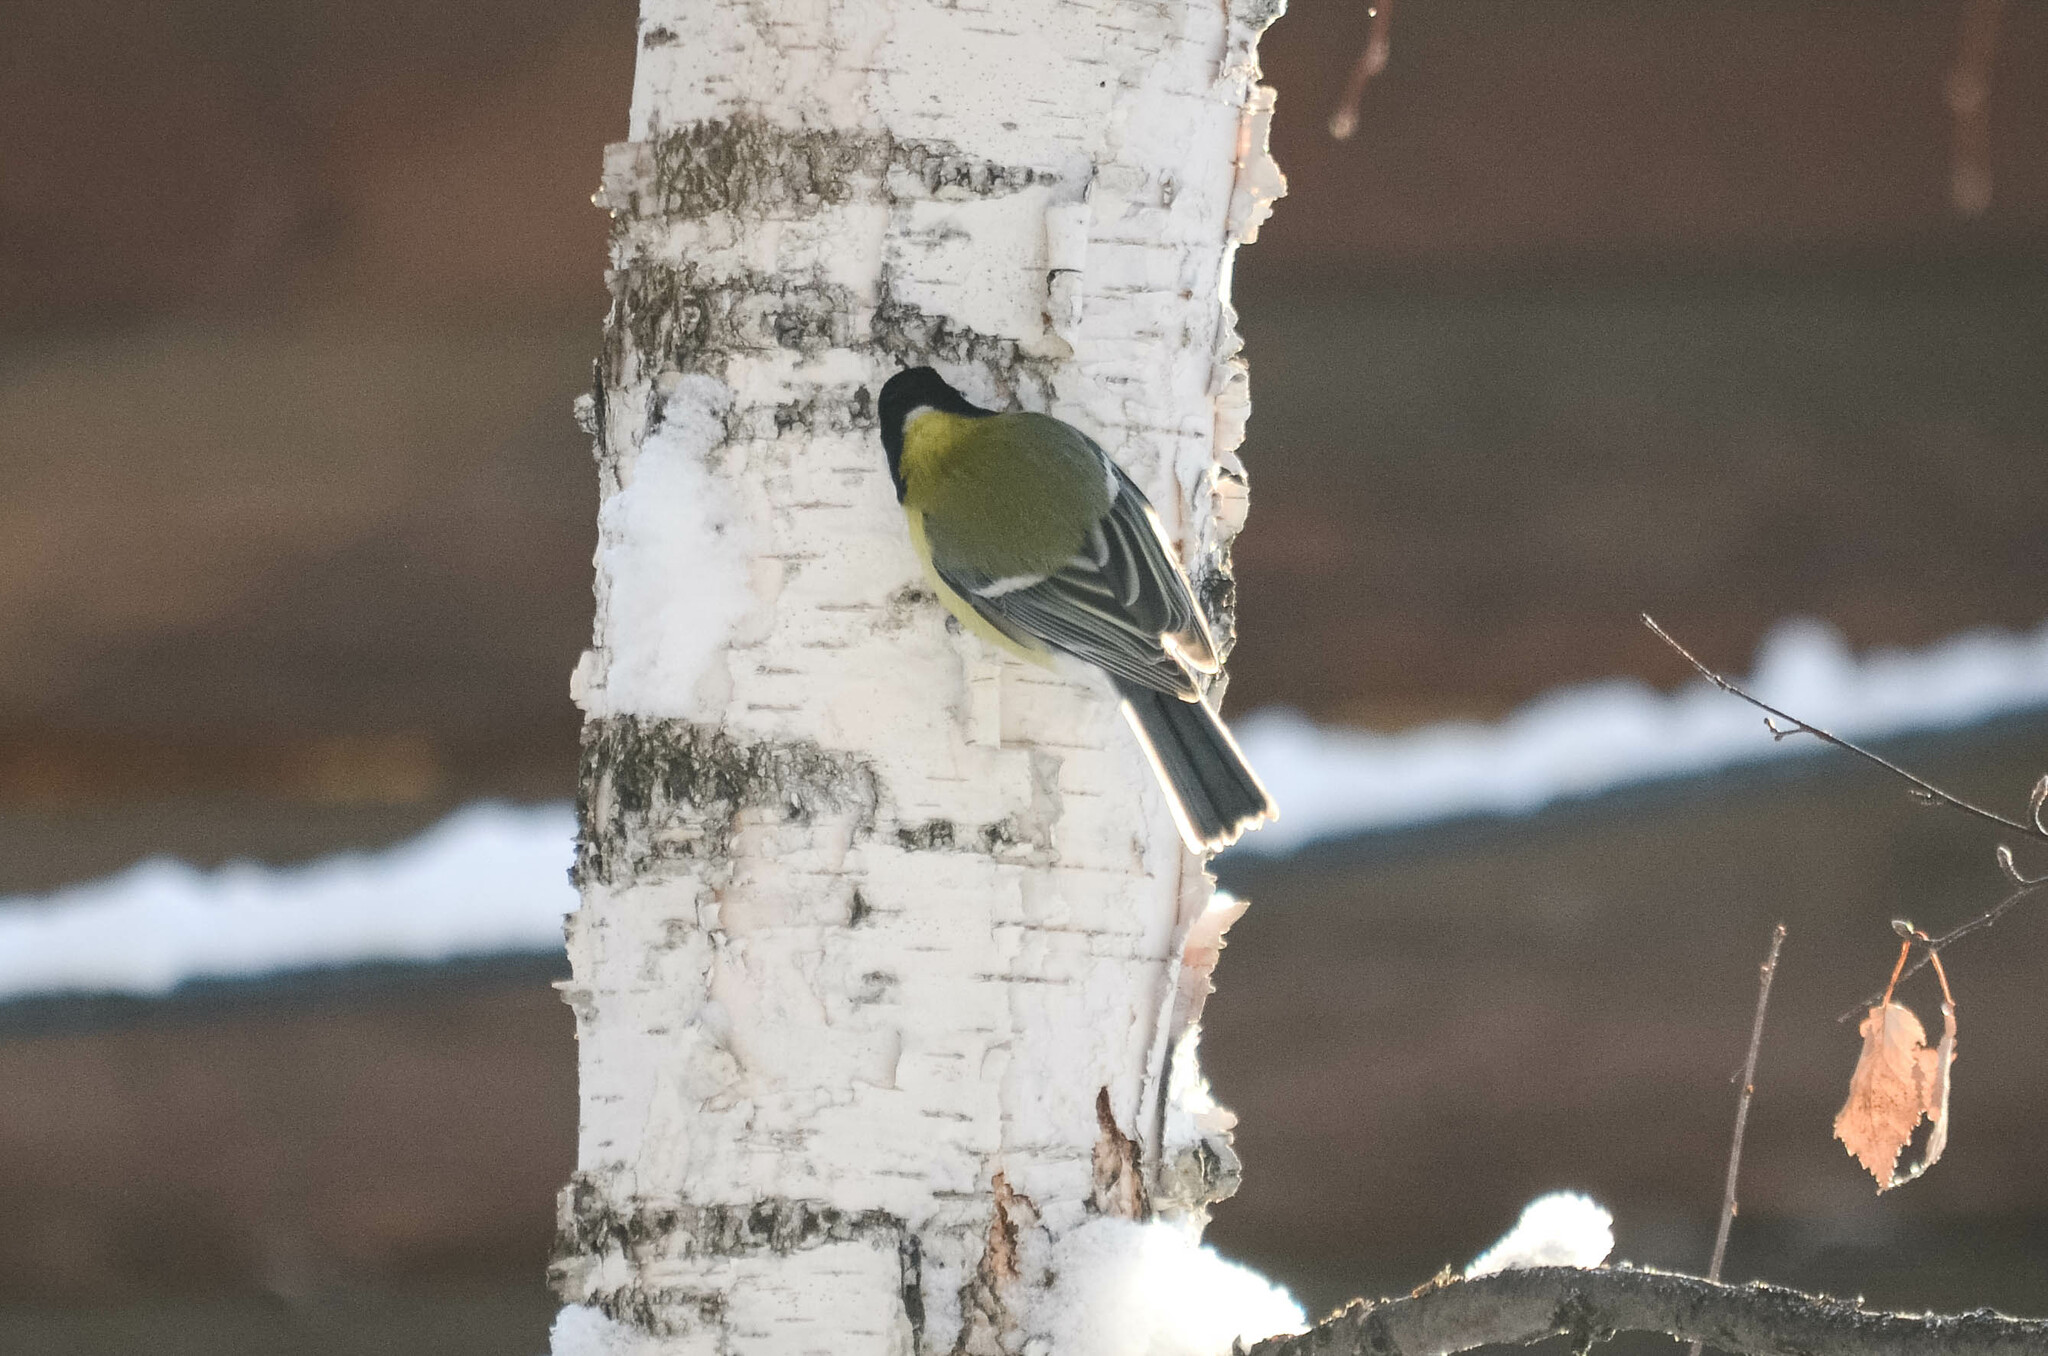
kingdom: Animalia
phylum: Chordata
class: Aves
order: Passeriformes
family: Paridae
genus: Parus
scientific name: Parus major
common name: Great tit
